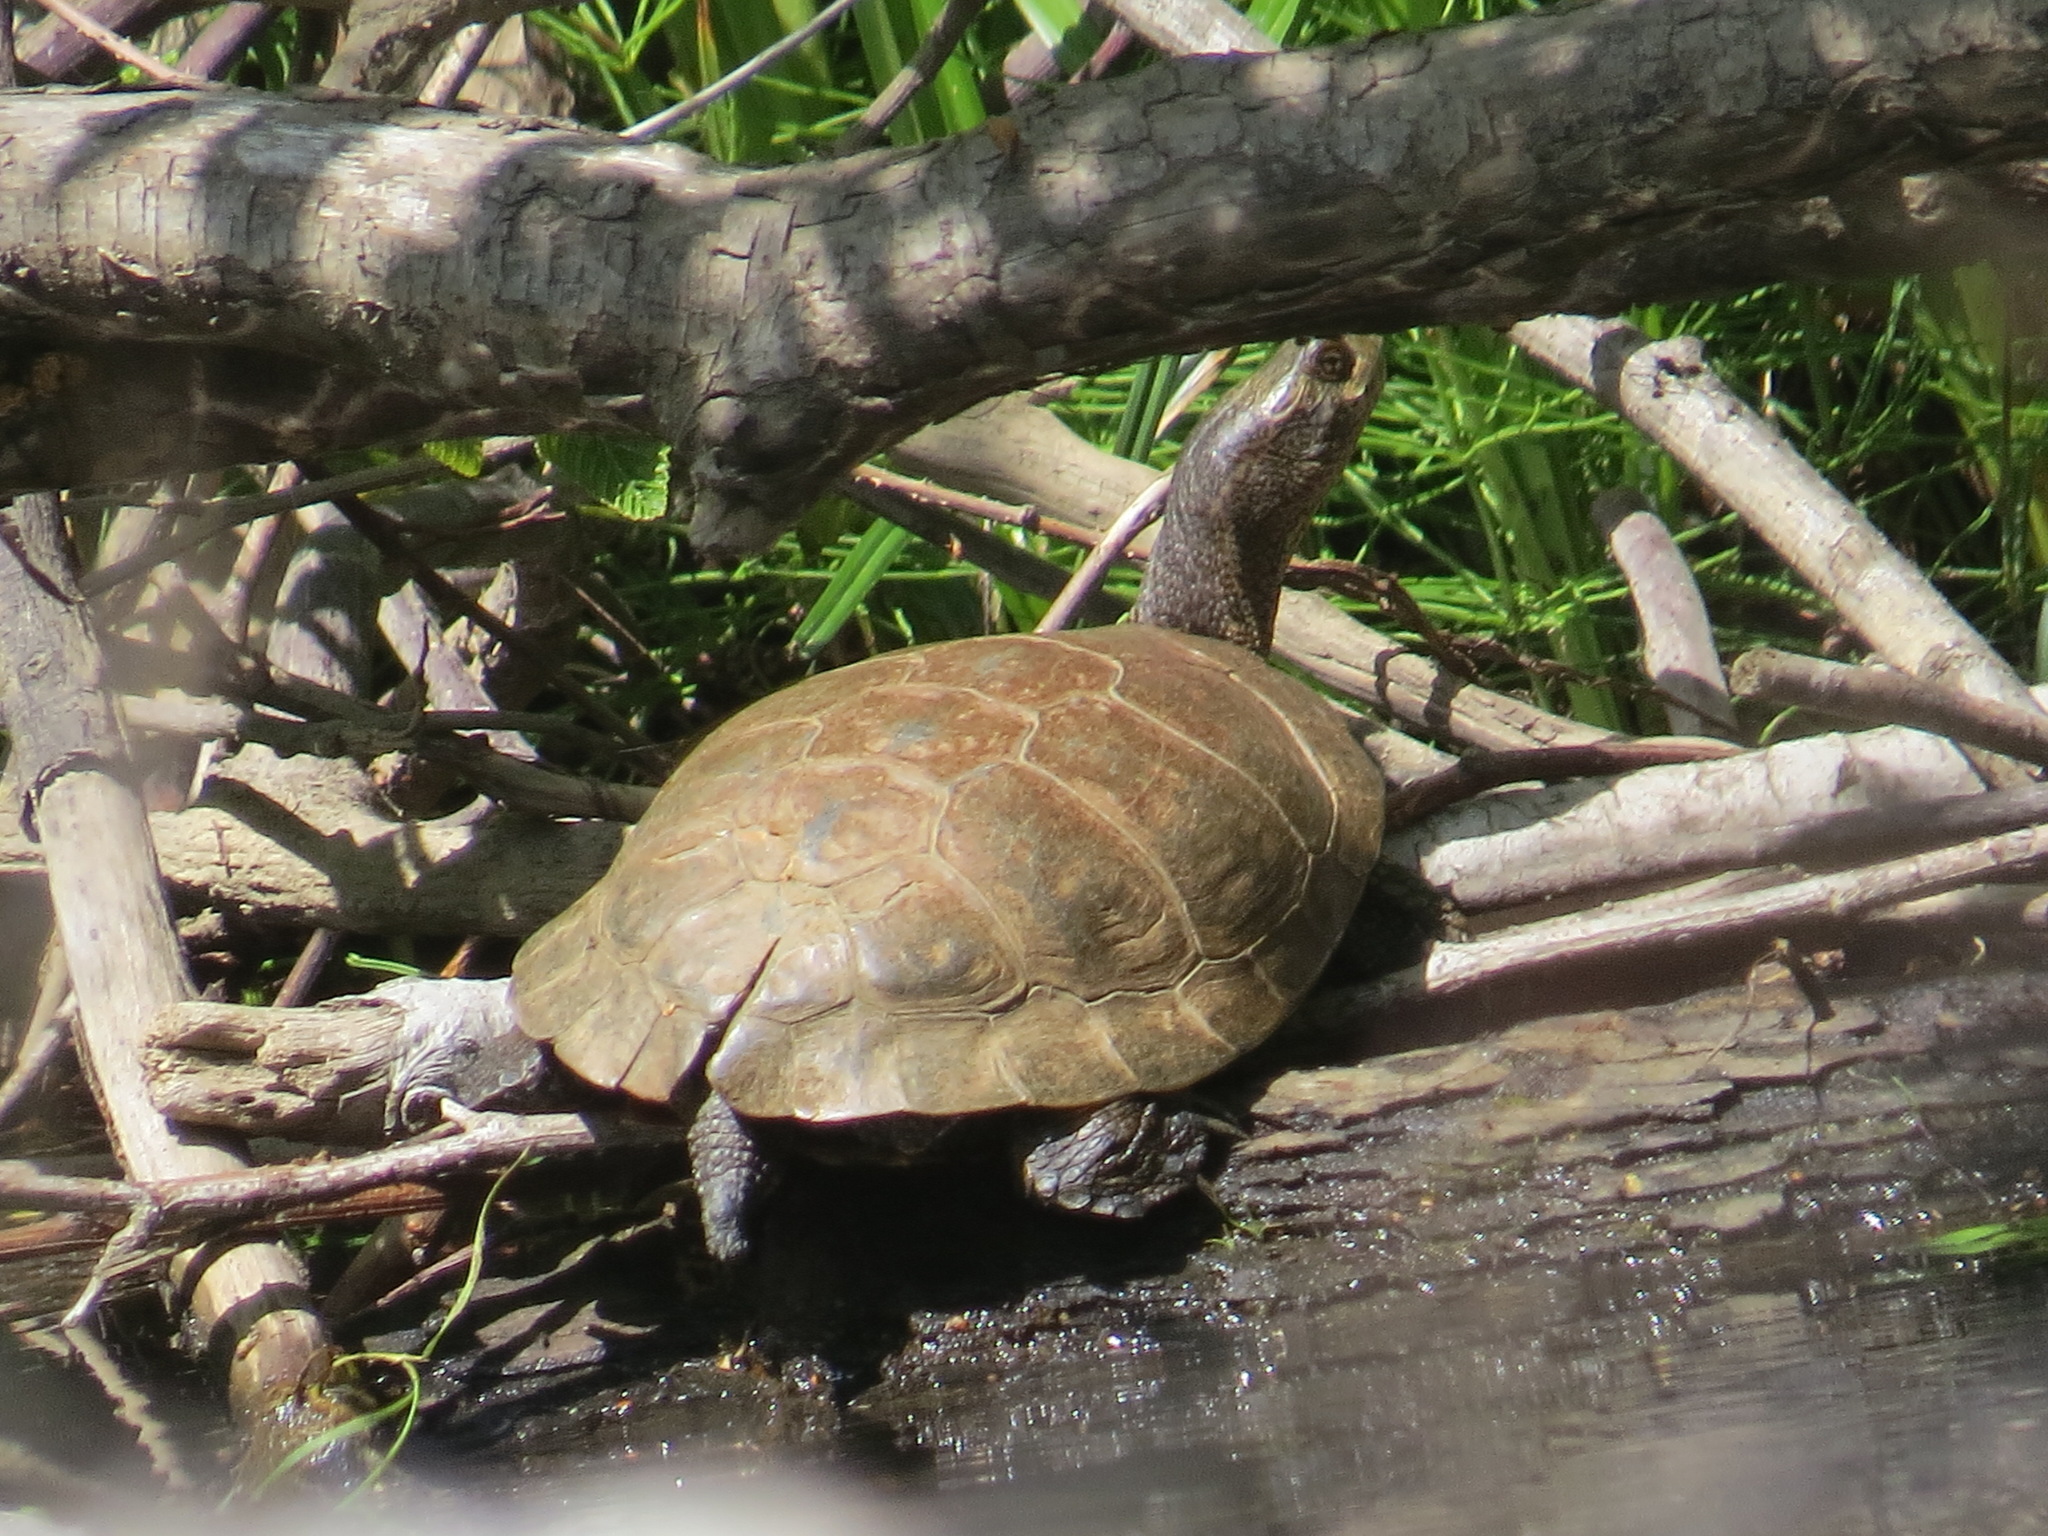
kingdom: Animalia
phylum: Chordata
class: Testudines
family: Emydidae
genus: Actinemys
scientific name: Actinemys marmorata
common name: Western pond turtle
